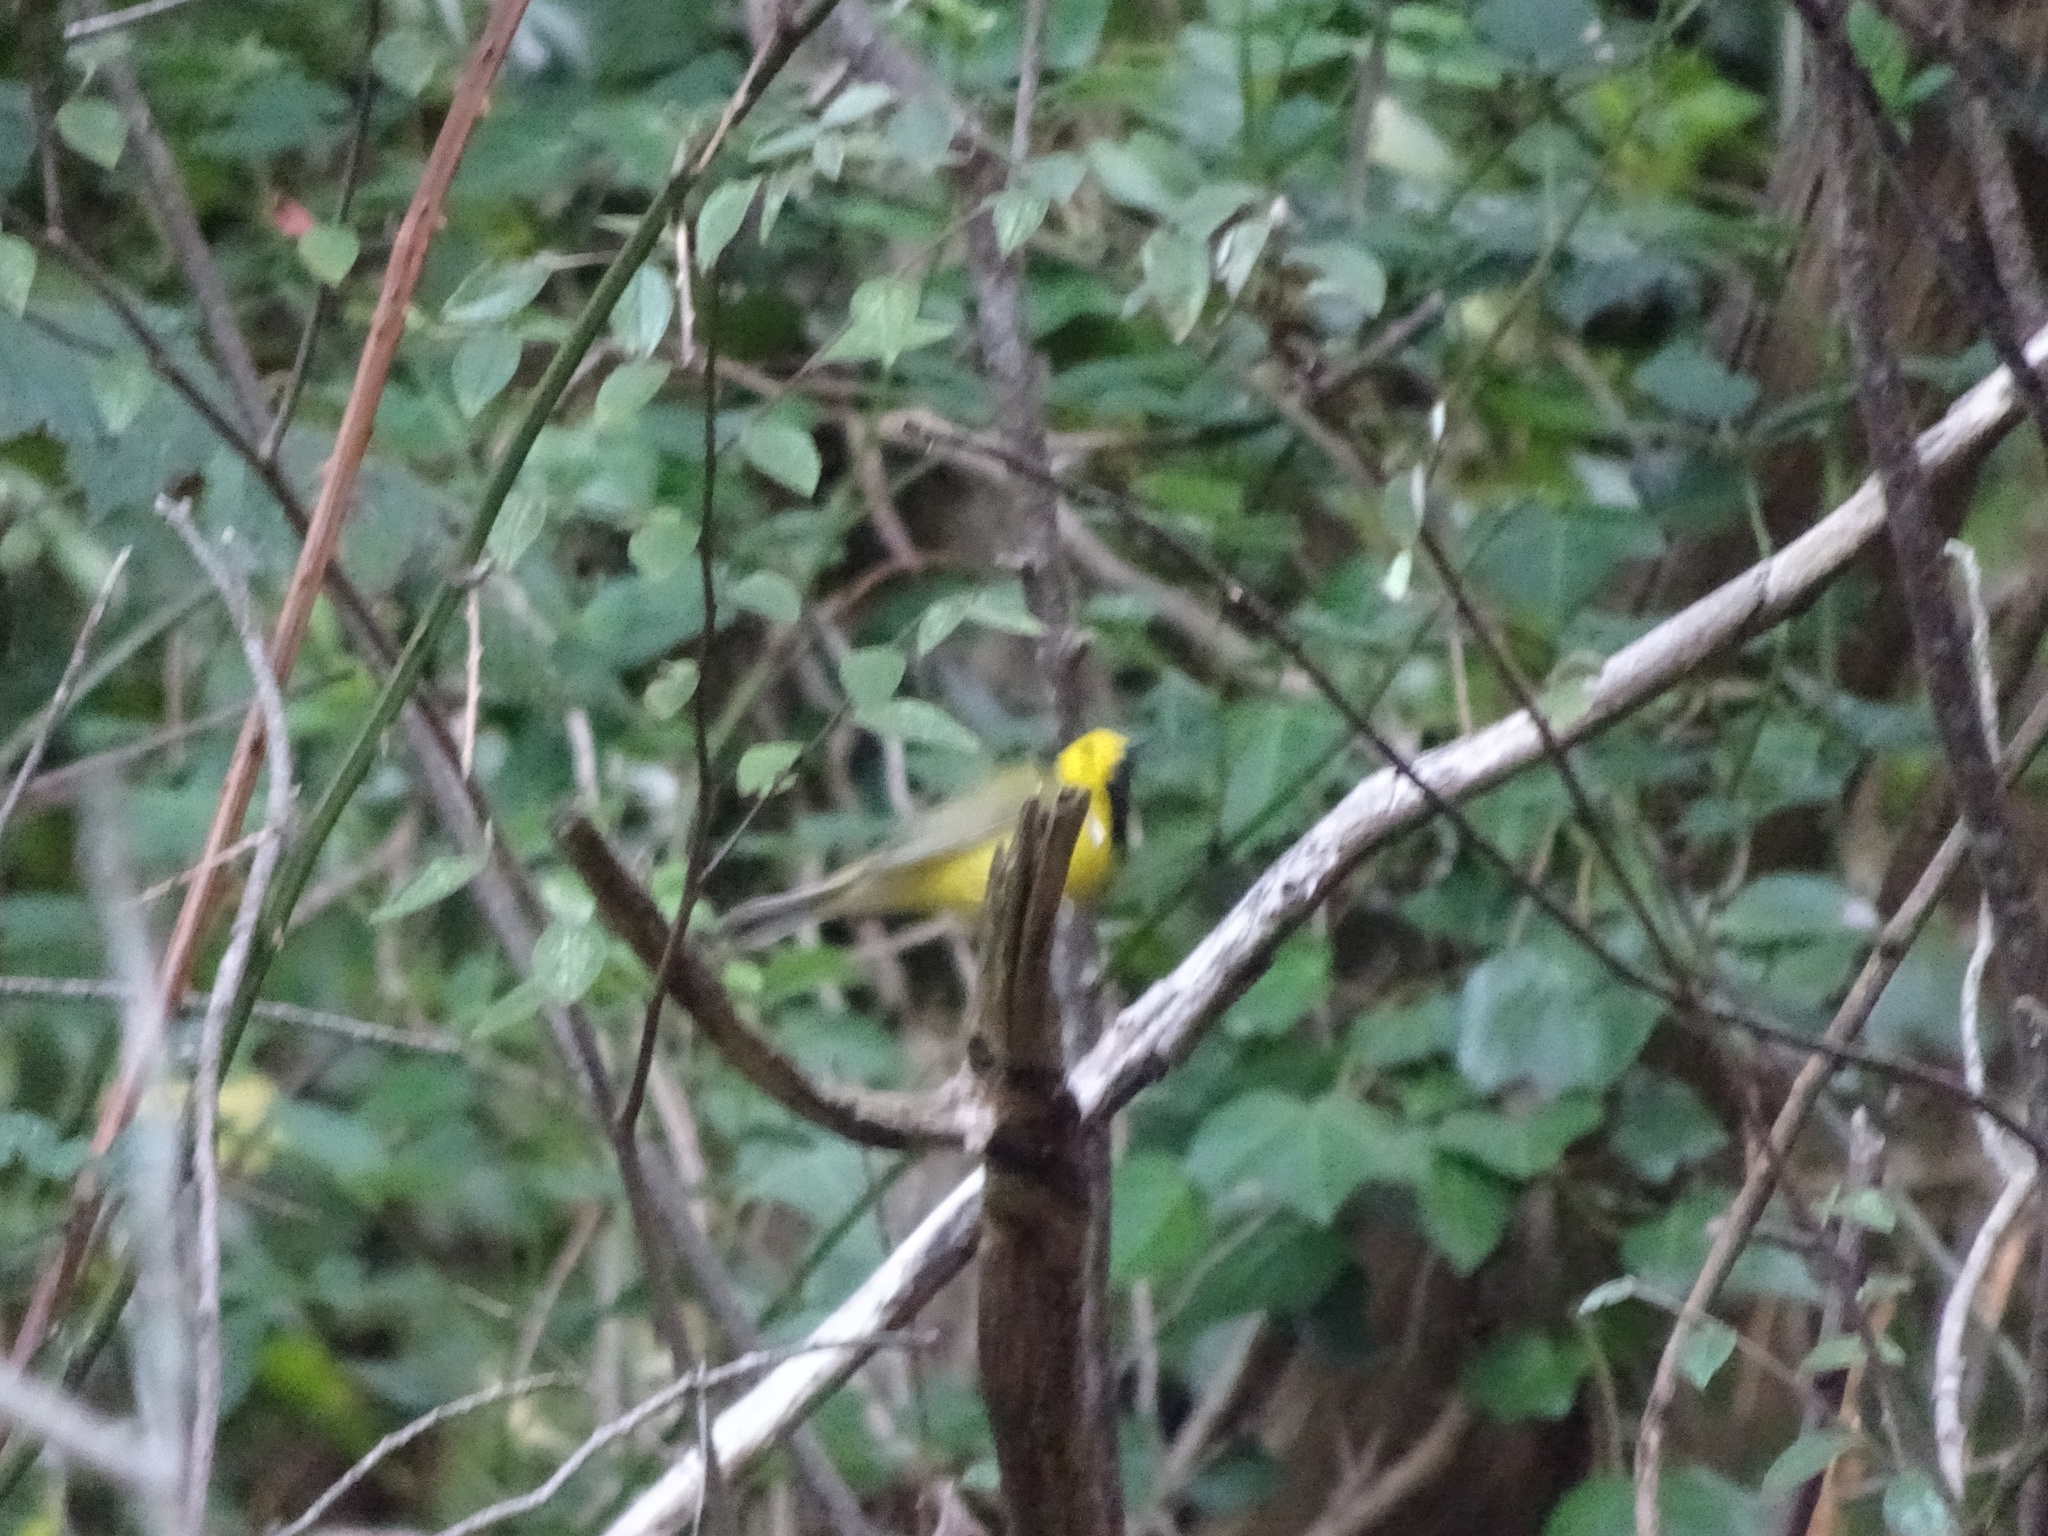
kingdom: Animalia
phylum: Chordata
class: Aves
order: Passeriformes
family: Parulidae
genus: Setophaga
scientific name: Setophaga citrina
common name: Hooded warbler
